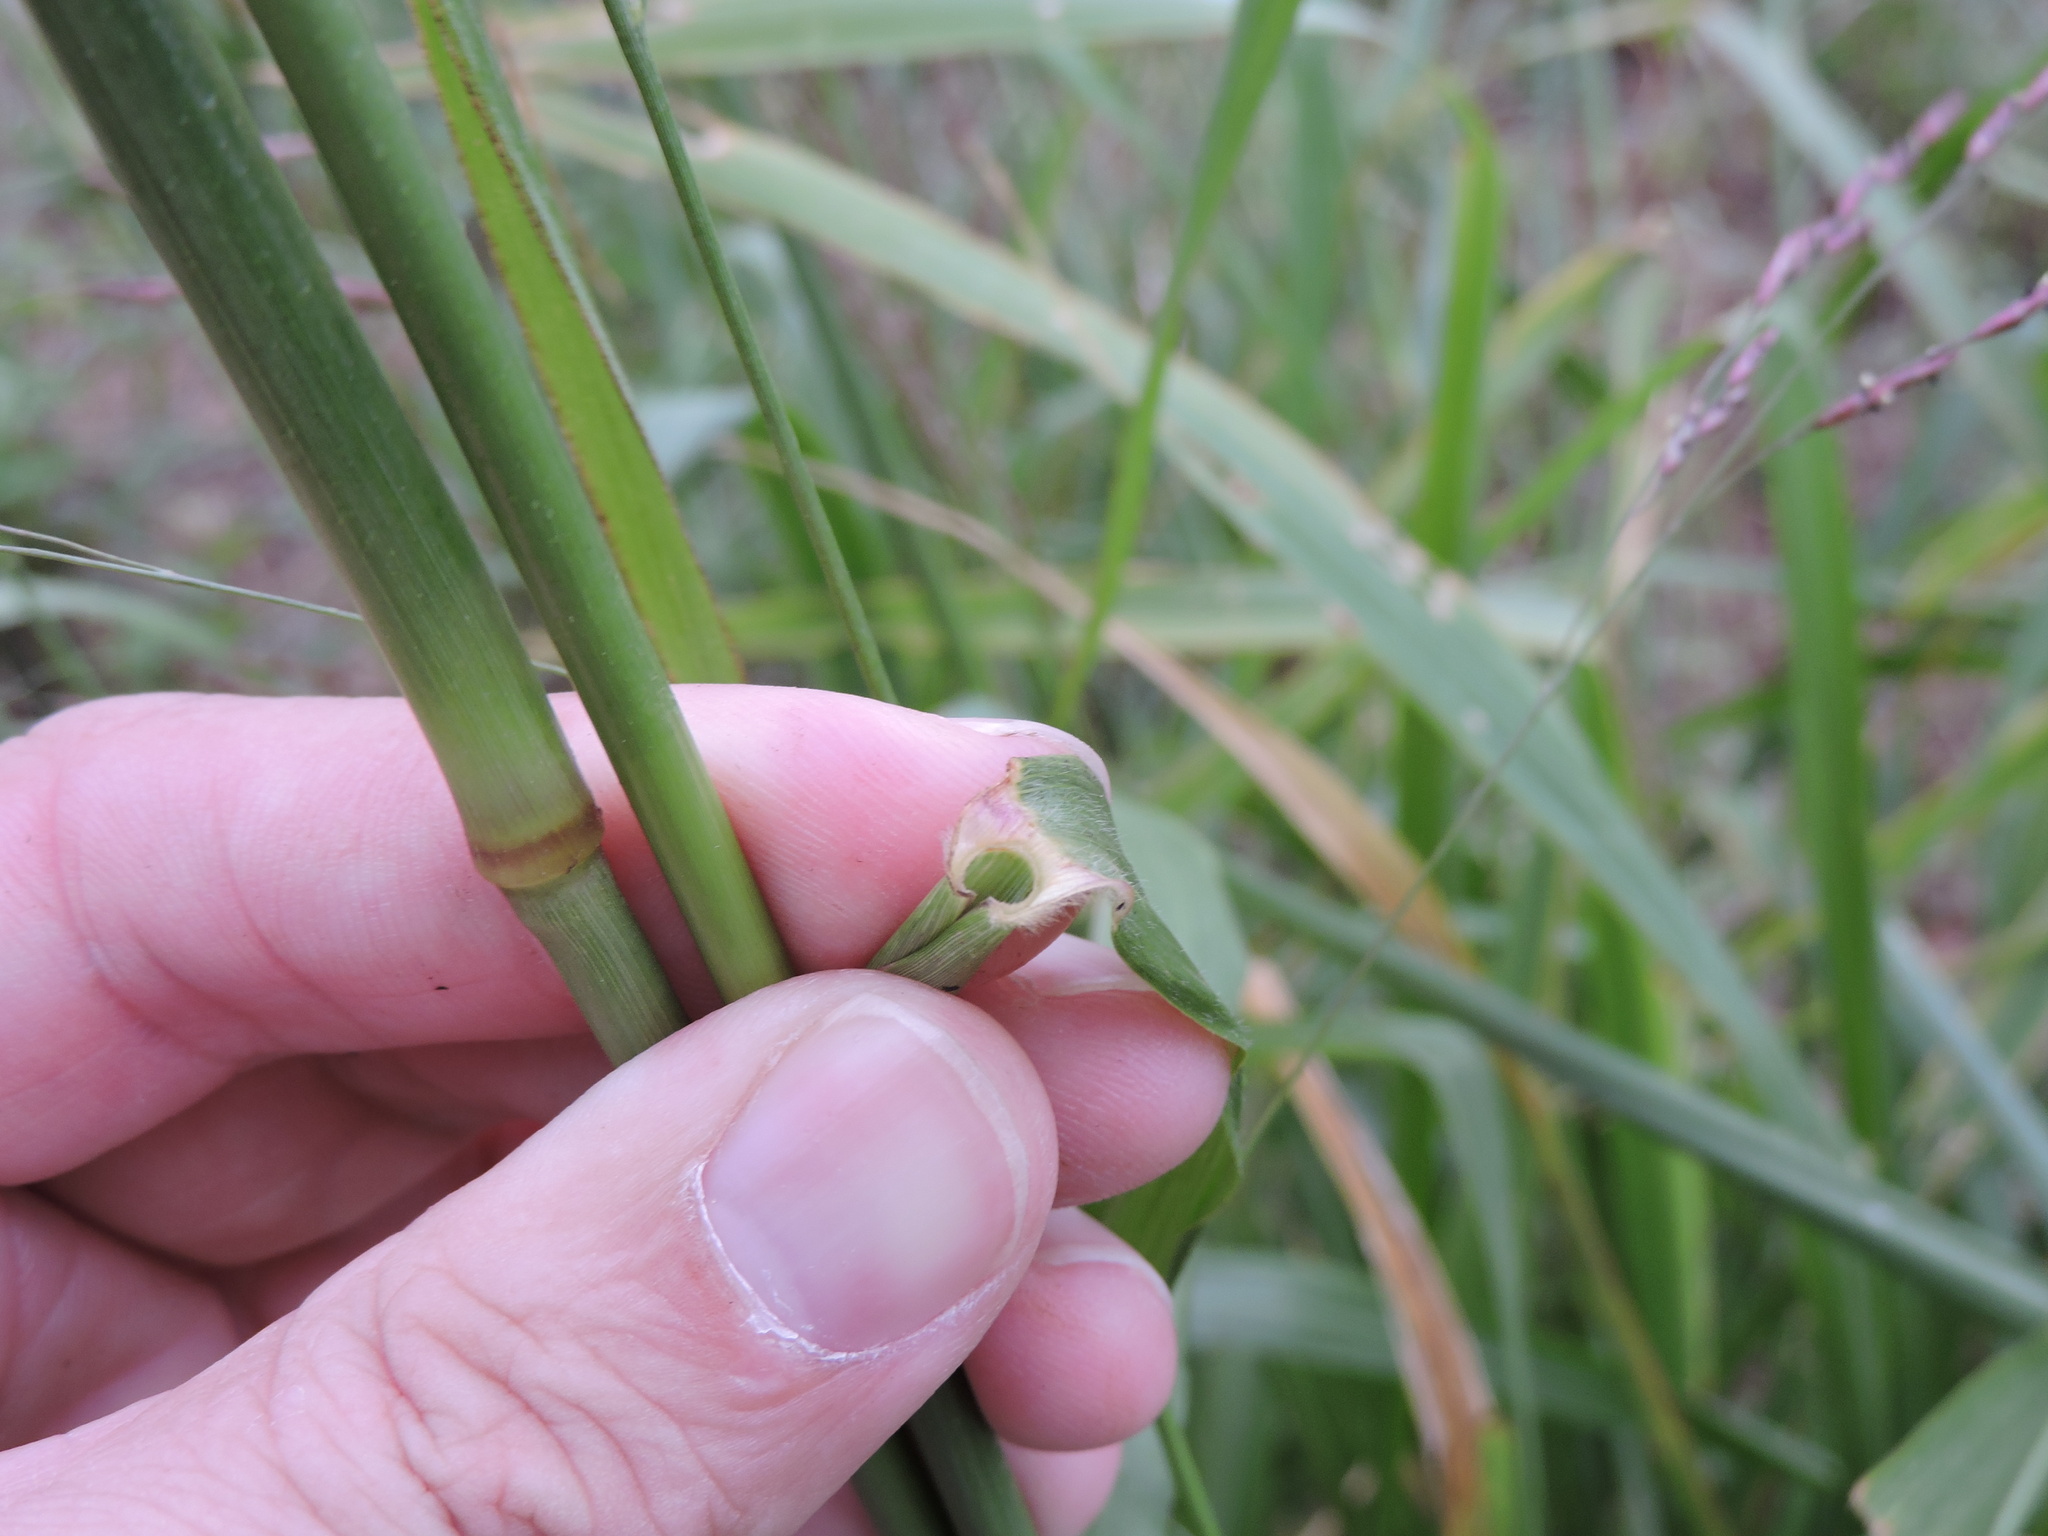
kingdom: Plantae
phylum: Tracheophyta
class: Liliopsida
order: Poales
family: Poaceae
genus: Tridens
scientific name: Tridens flavus
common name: Purpletop
